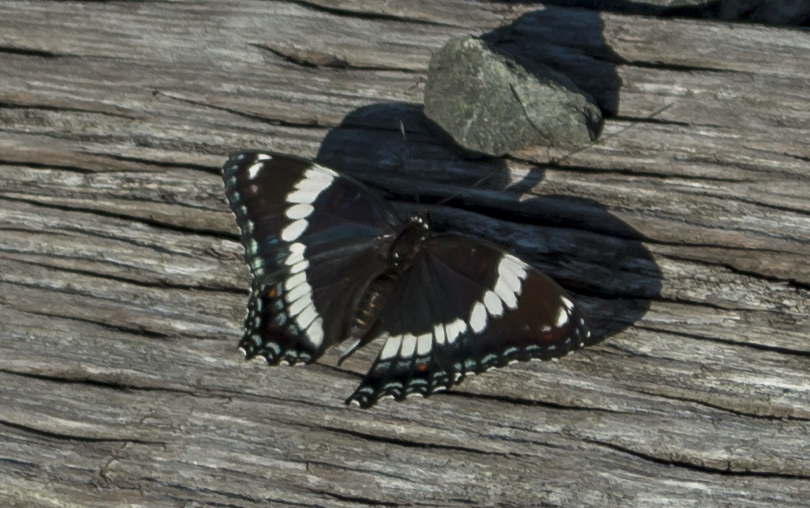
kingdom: Animalia
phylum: Arthropoda
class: Insecta
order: Lepidoptera
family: Nymphalidae
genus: Limenitis
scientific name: Limenitis arthemis
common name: Red-spotted admiral
